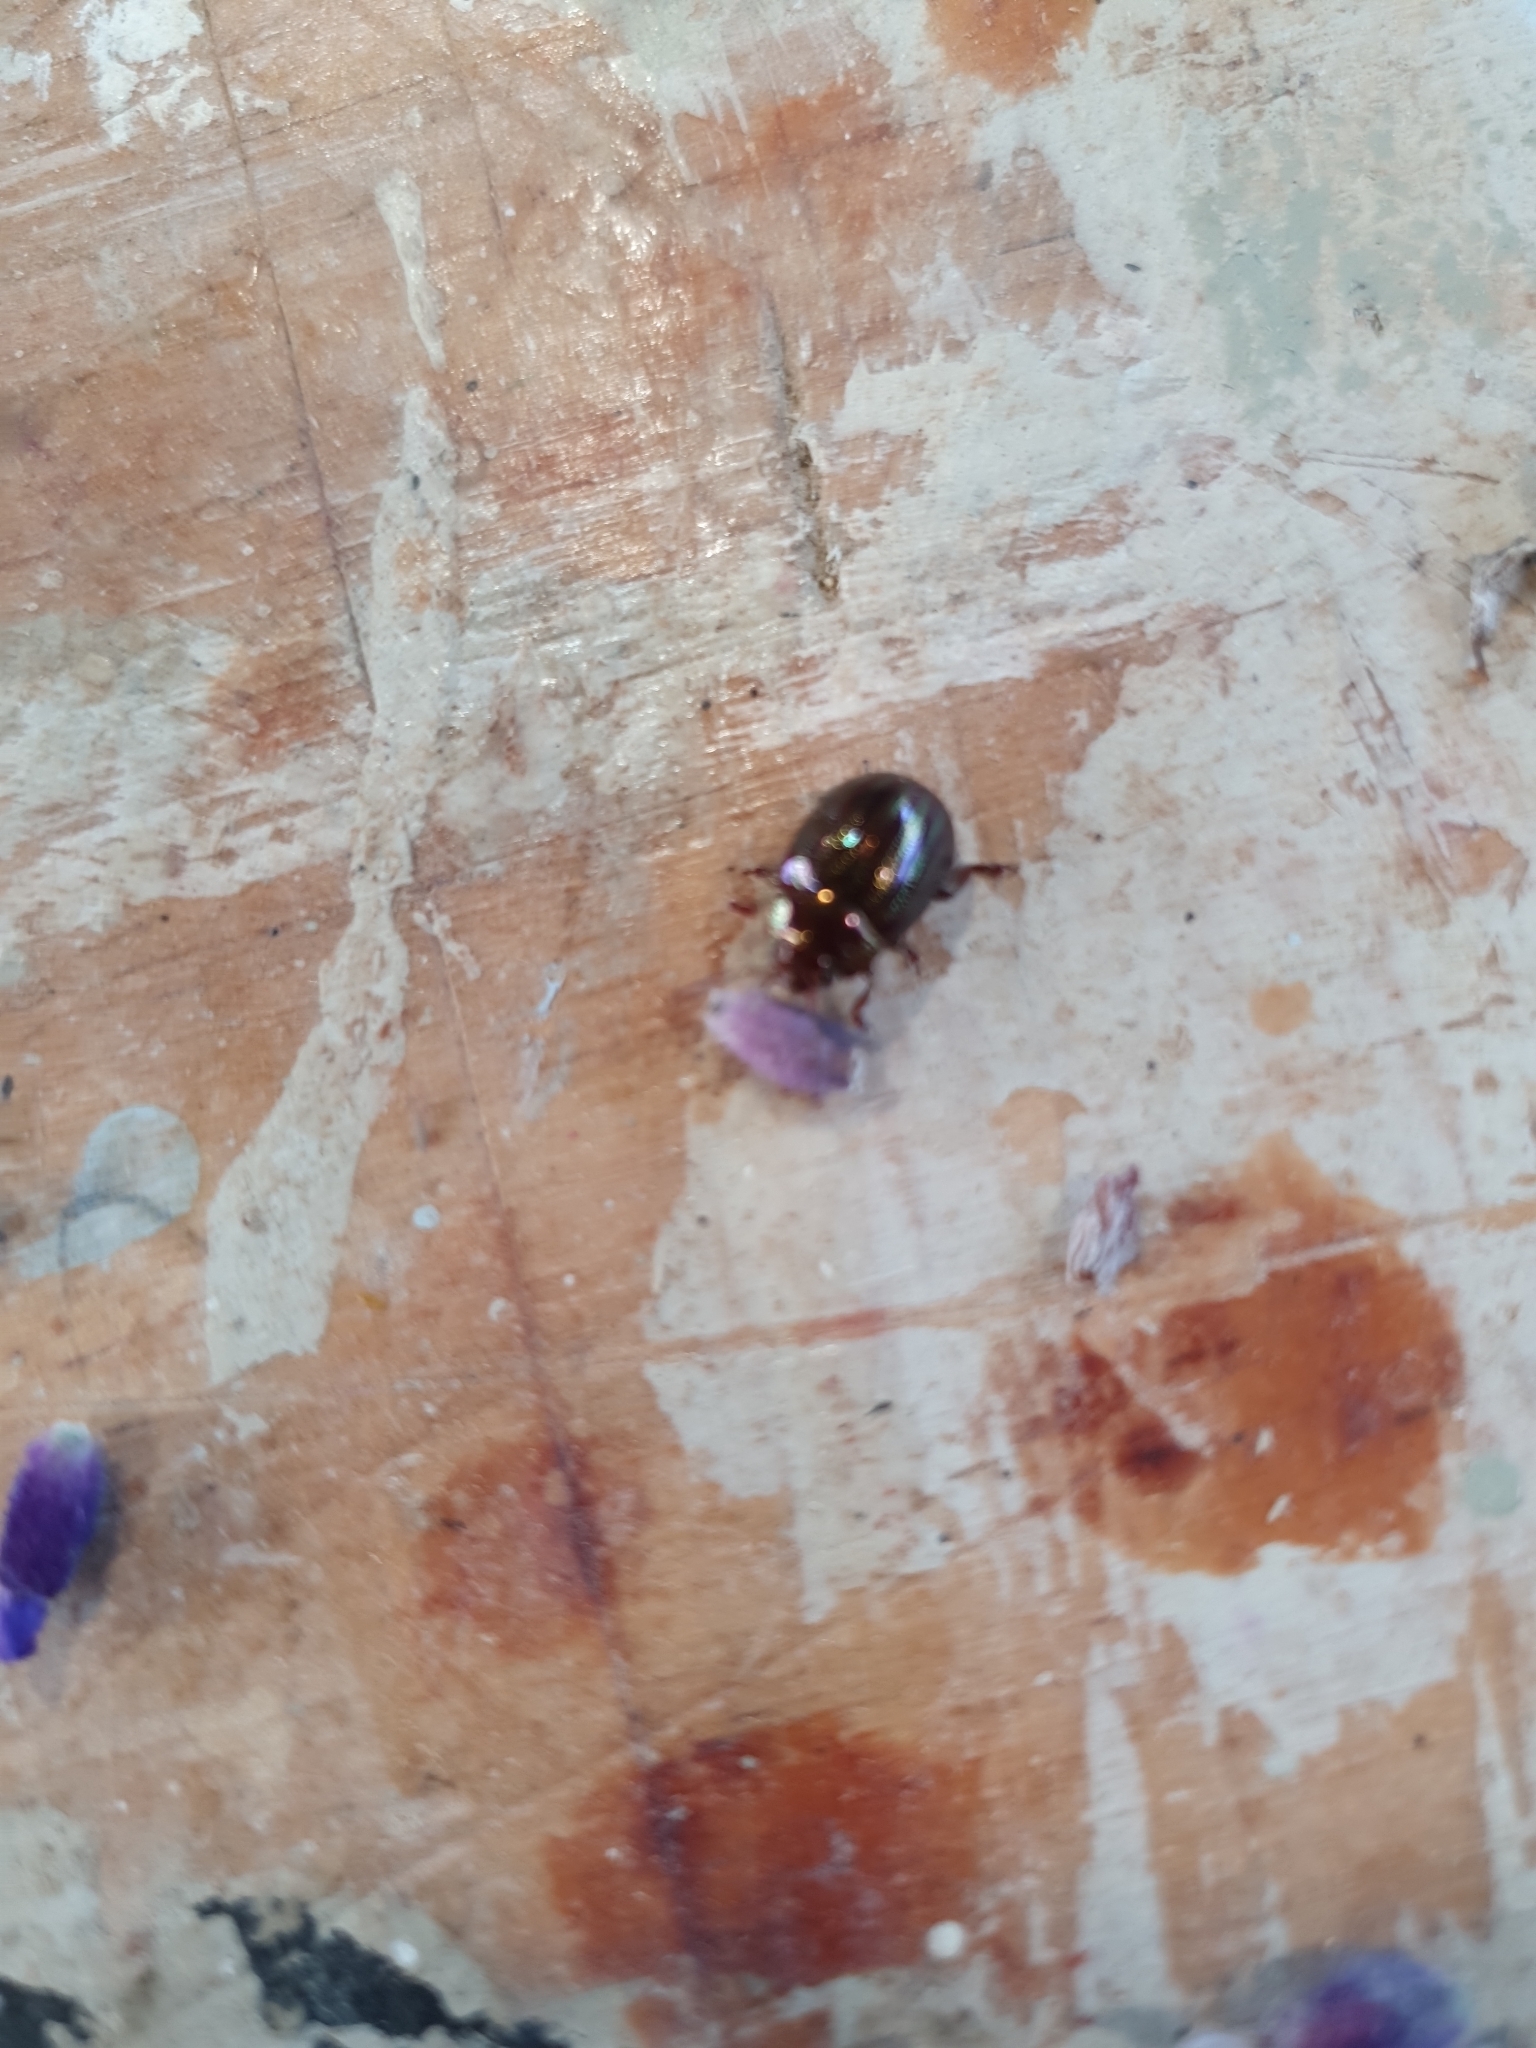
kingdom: Animalia
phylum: Arthropoda
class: Insecta
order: Coleoptera
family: Chrysomelidae
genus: Chrysolina
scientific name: Chrysolina americana
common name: Rosemary beetle
